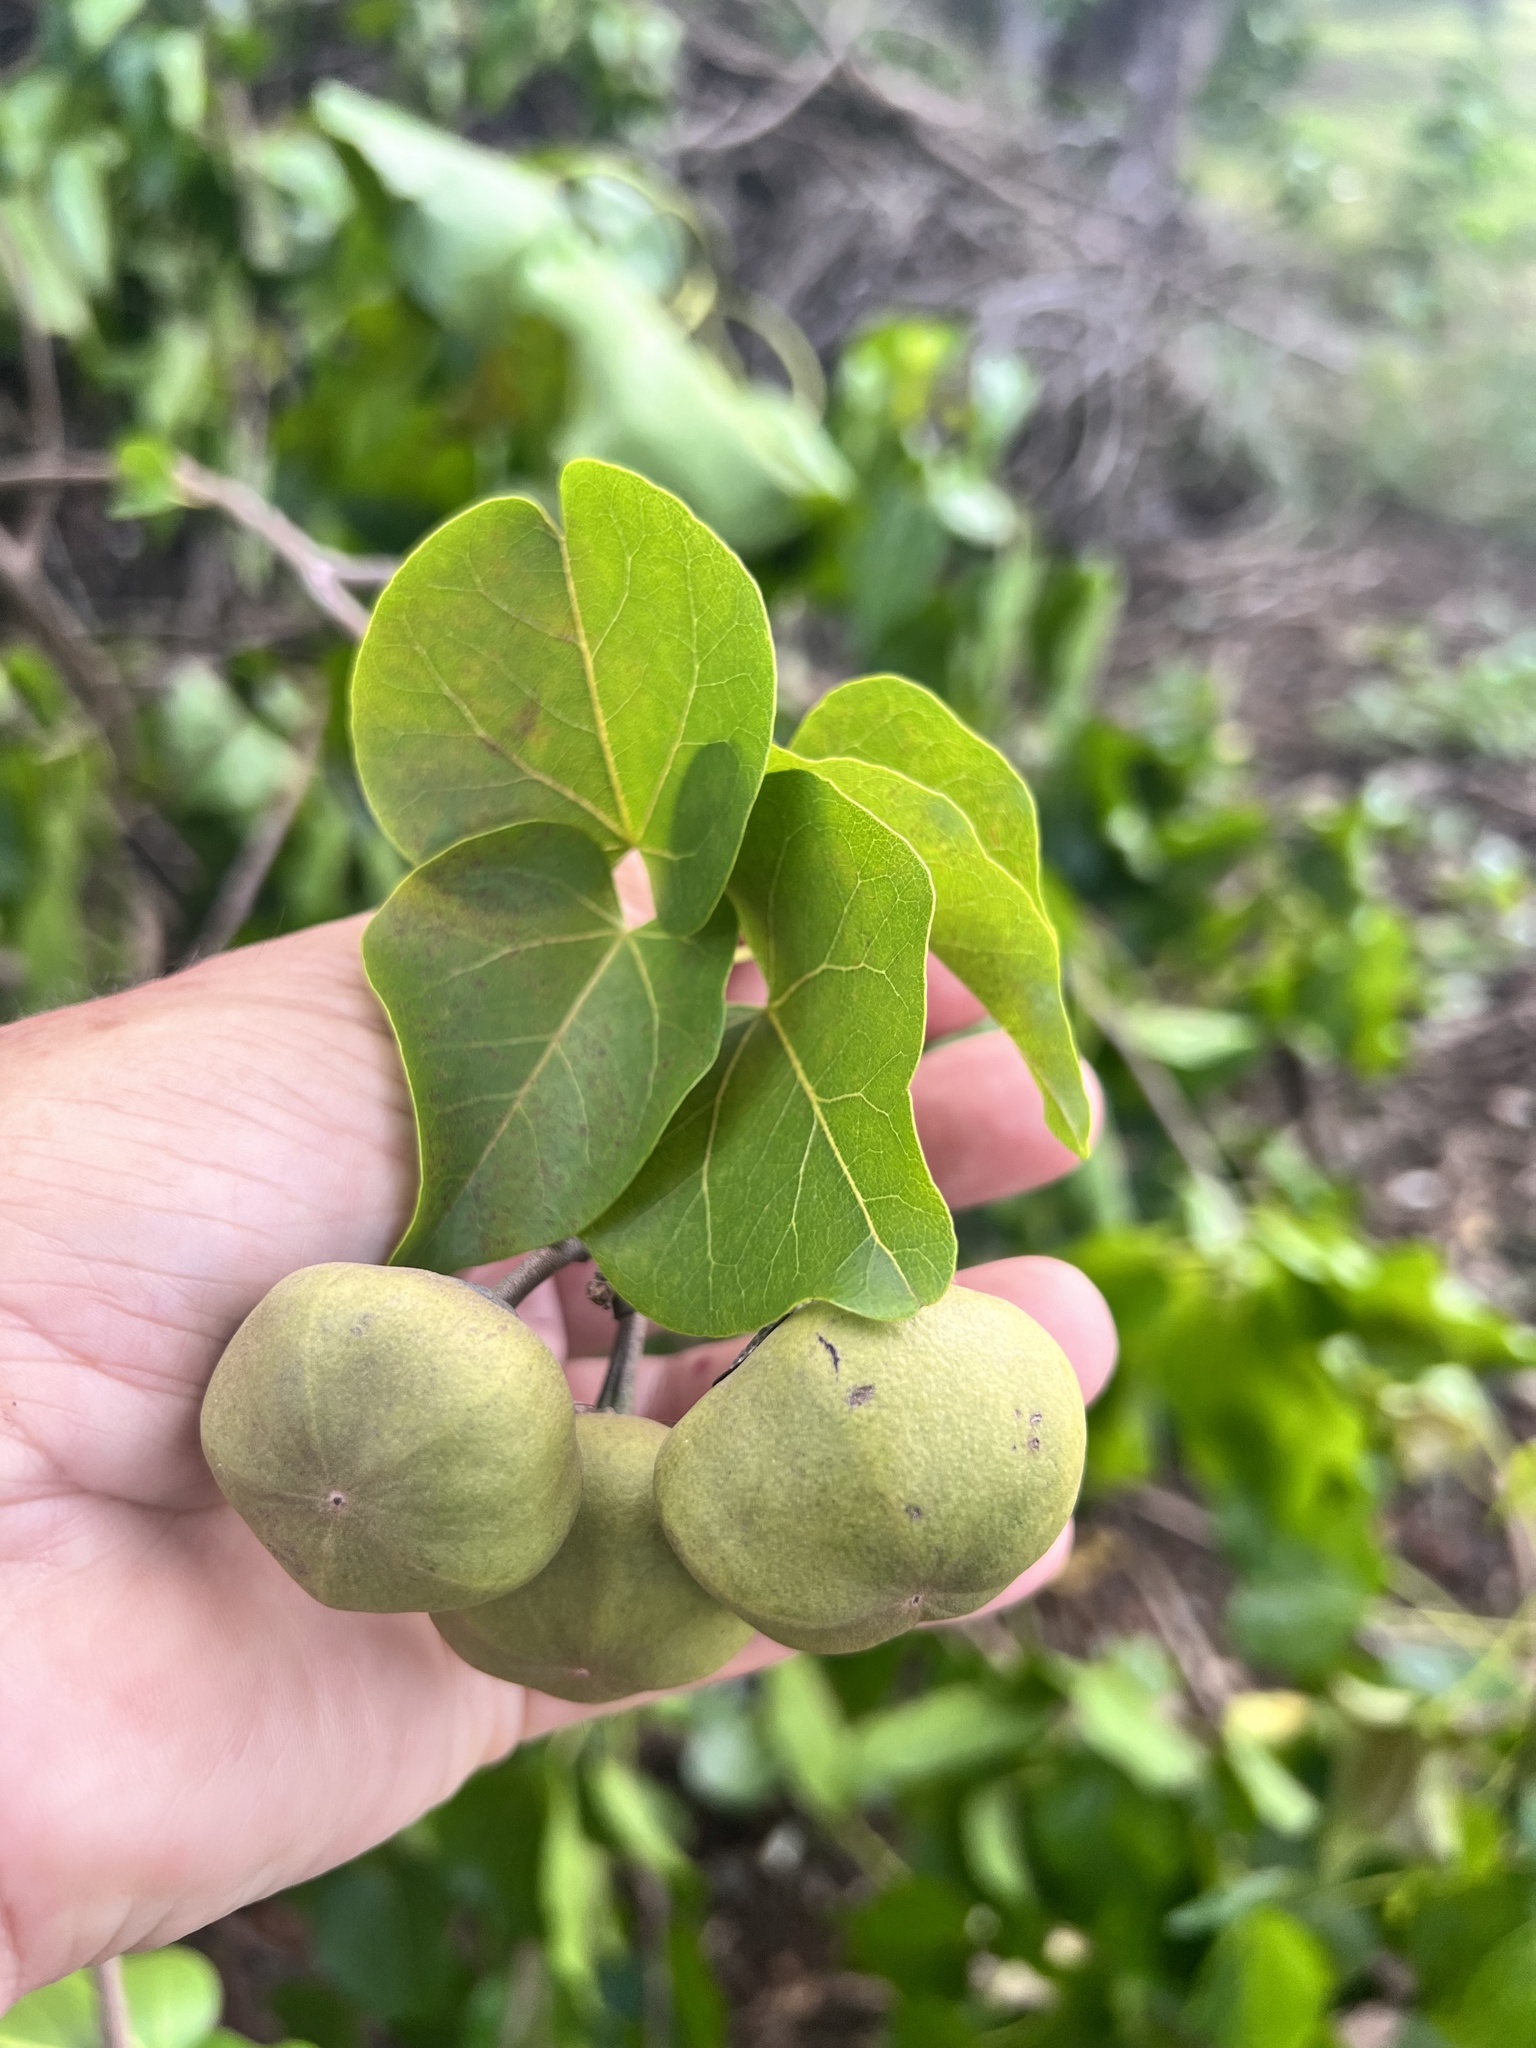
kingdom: Plantae
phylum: Tracheophyta
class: Magnoliopsida
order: Malvales
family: Malvaceae
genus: Thespesia
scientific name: Thespesia populnea
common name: Seaside mahoe
